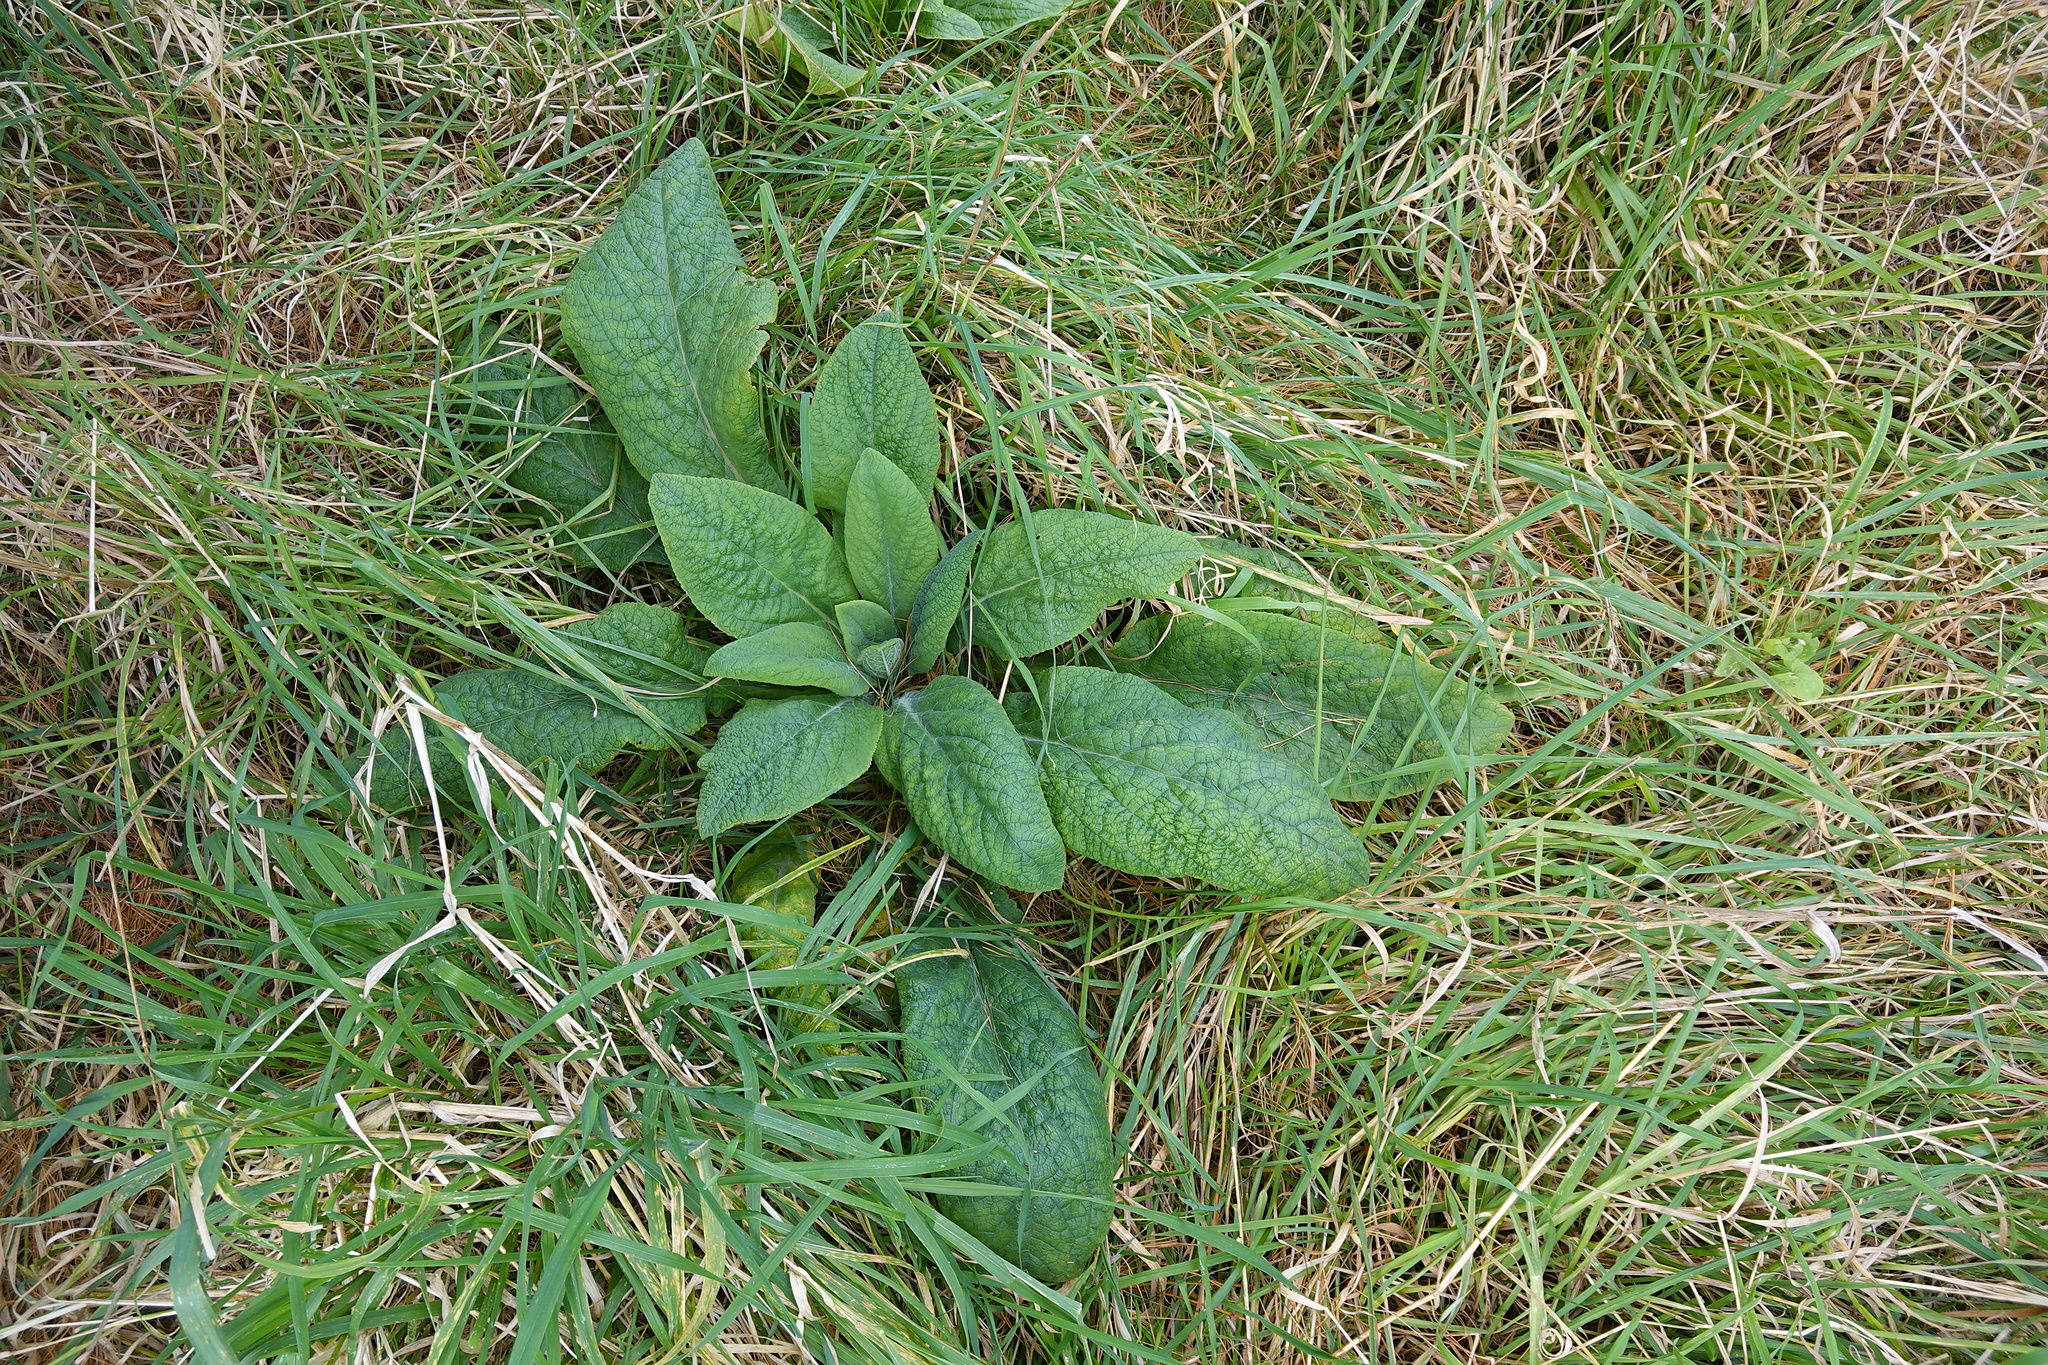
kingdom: Plantae
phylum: Tracheophyta
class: Magnoliopsida
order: Lamiales
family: Plantaginaceae
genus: Digitalis
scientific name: Digitalis purpurea
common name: Foxglove
